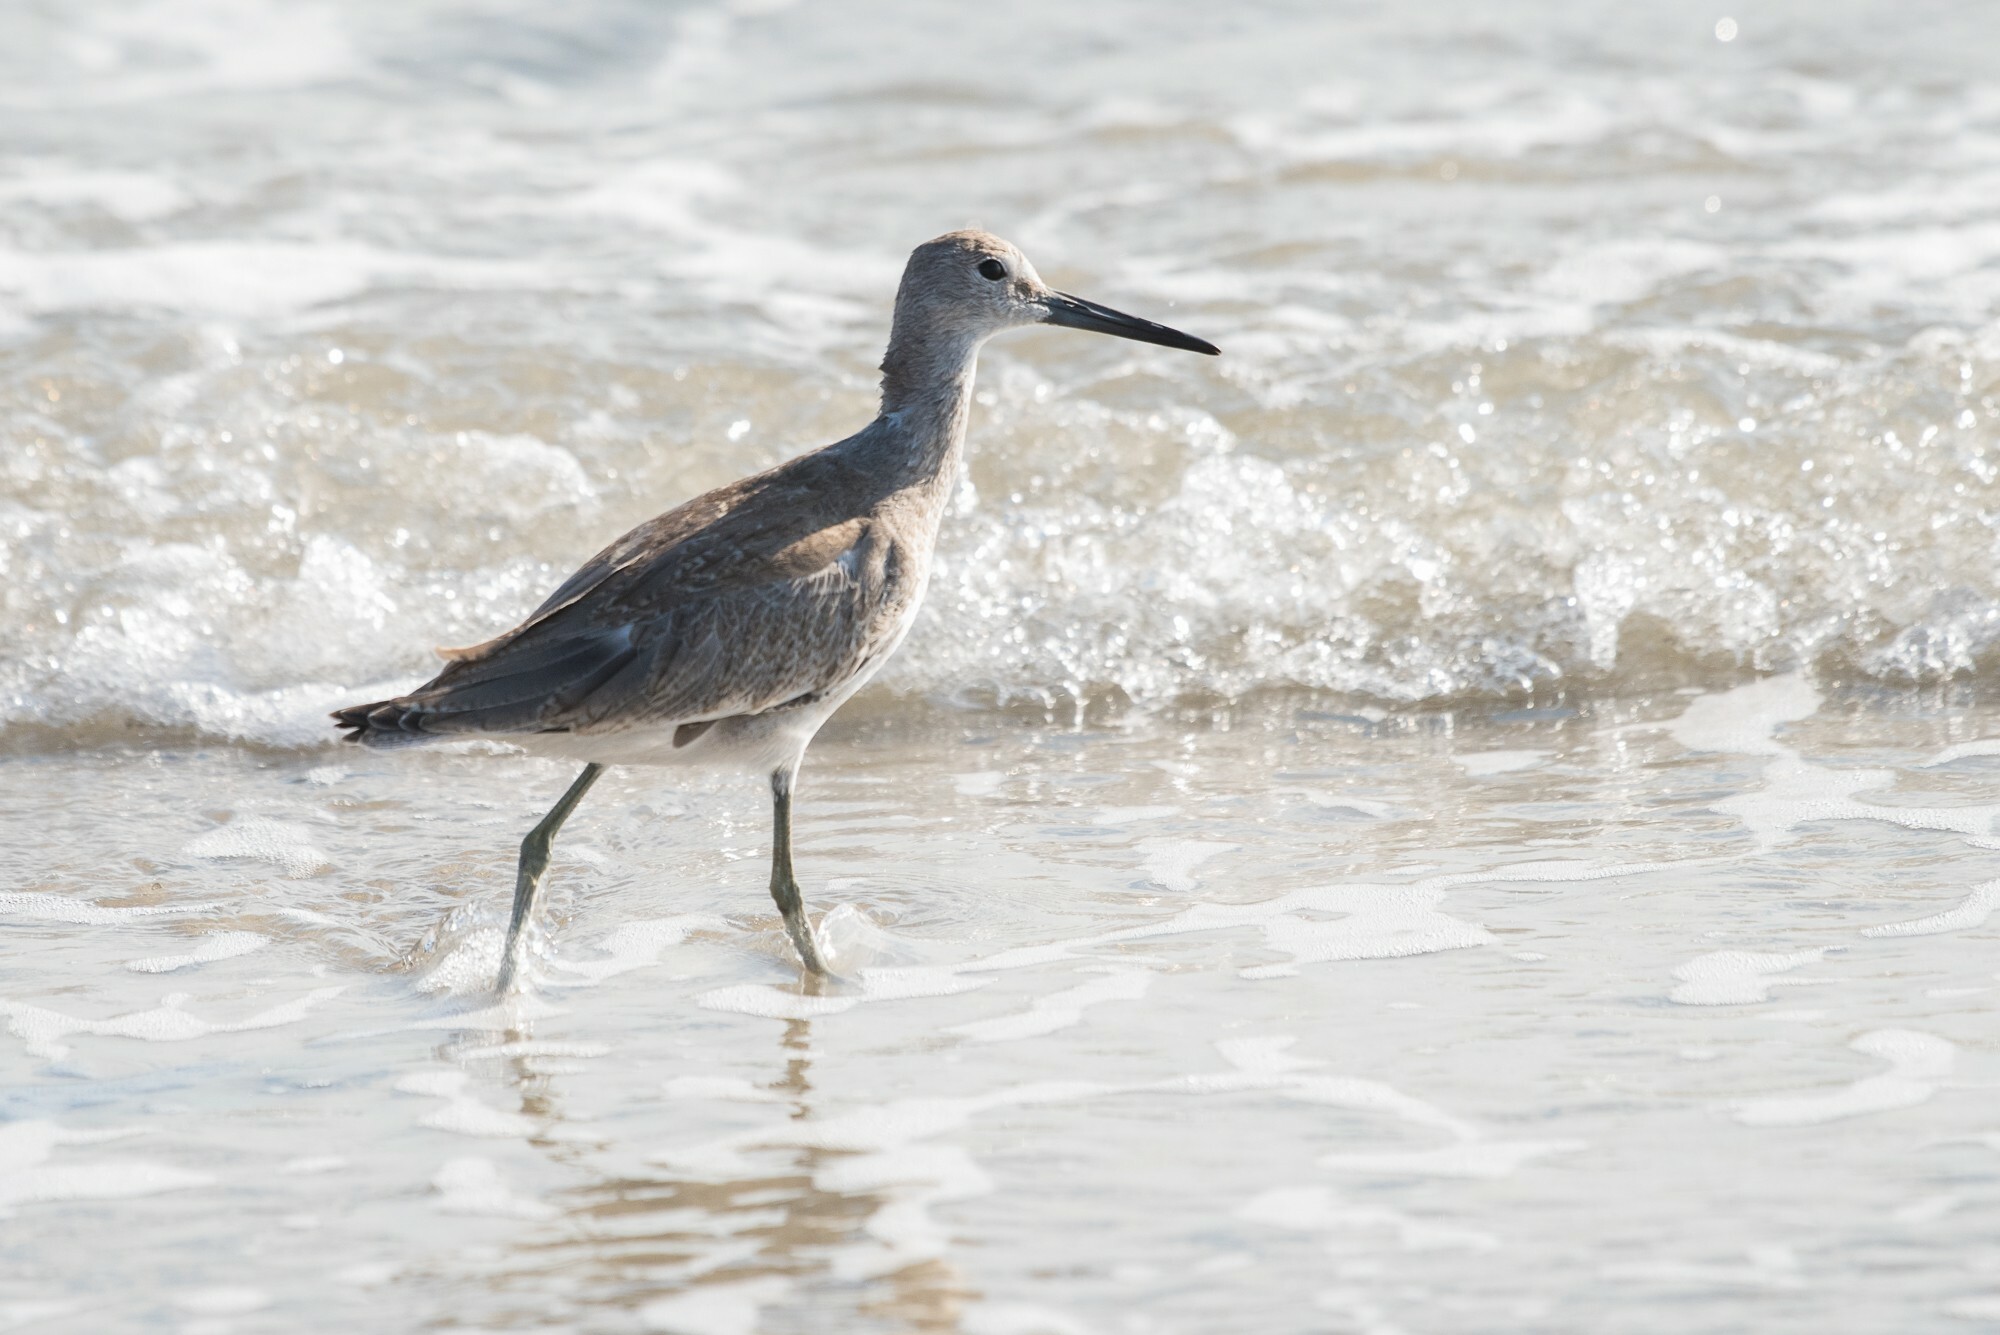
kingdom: Animalia
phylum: Chordata
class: Aves
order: Charadriiformes
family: Scolopacidae
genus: Tringa
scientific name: Tringa semipalmata
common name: Willet
